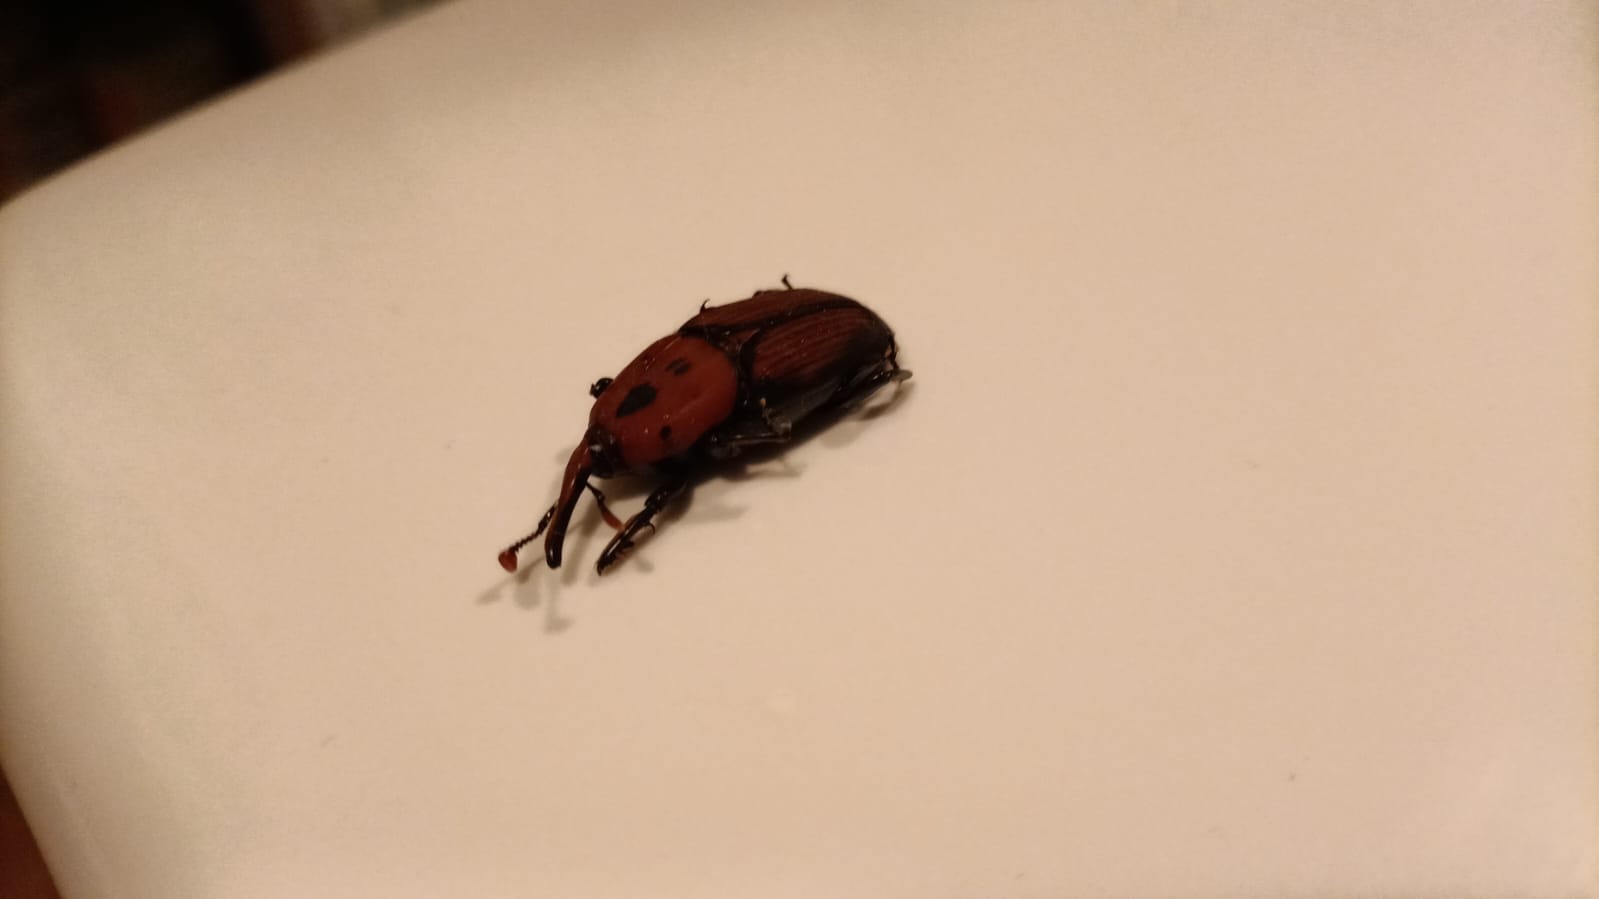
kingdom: Animalia
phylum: Arthropoda
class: Insecta
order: Coleoptera
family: Dryophthoridae
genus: Rhynchophorus
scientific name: Rhynchophorus ferrugineus
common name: Red palm weevil
